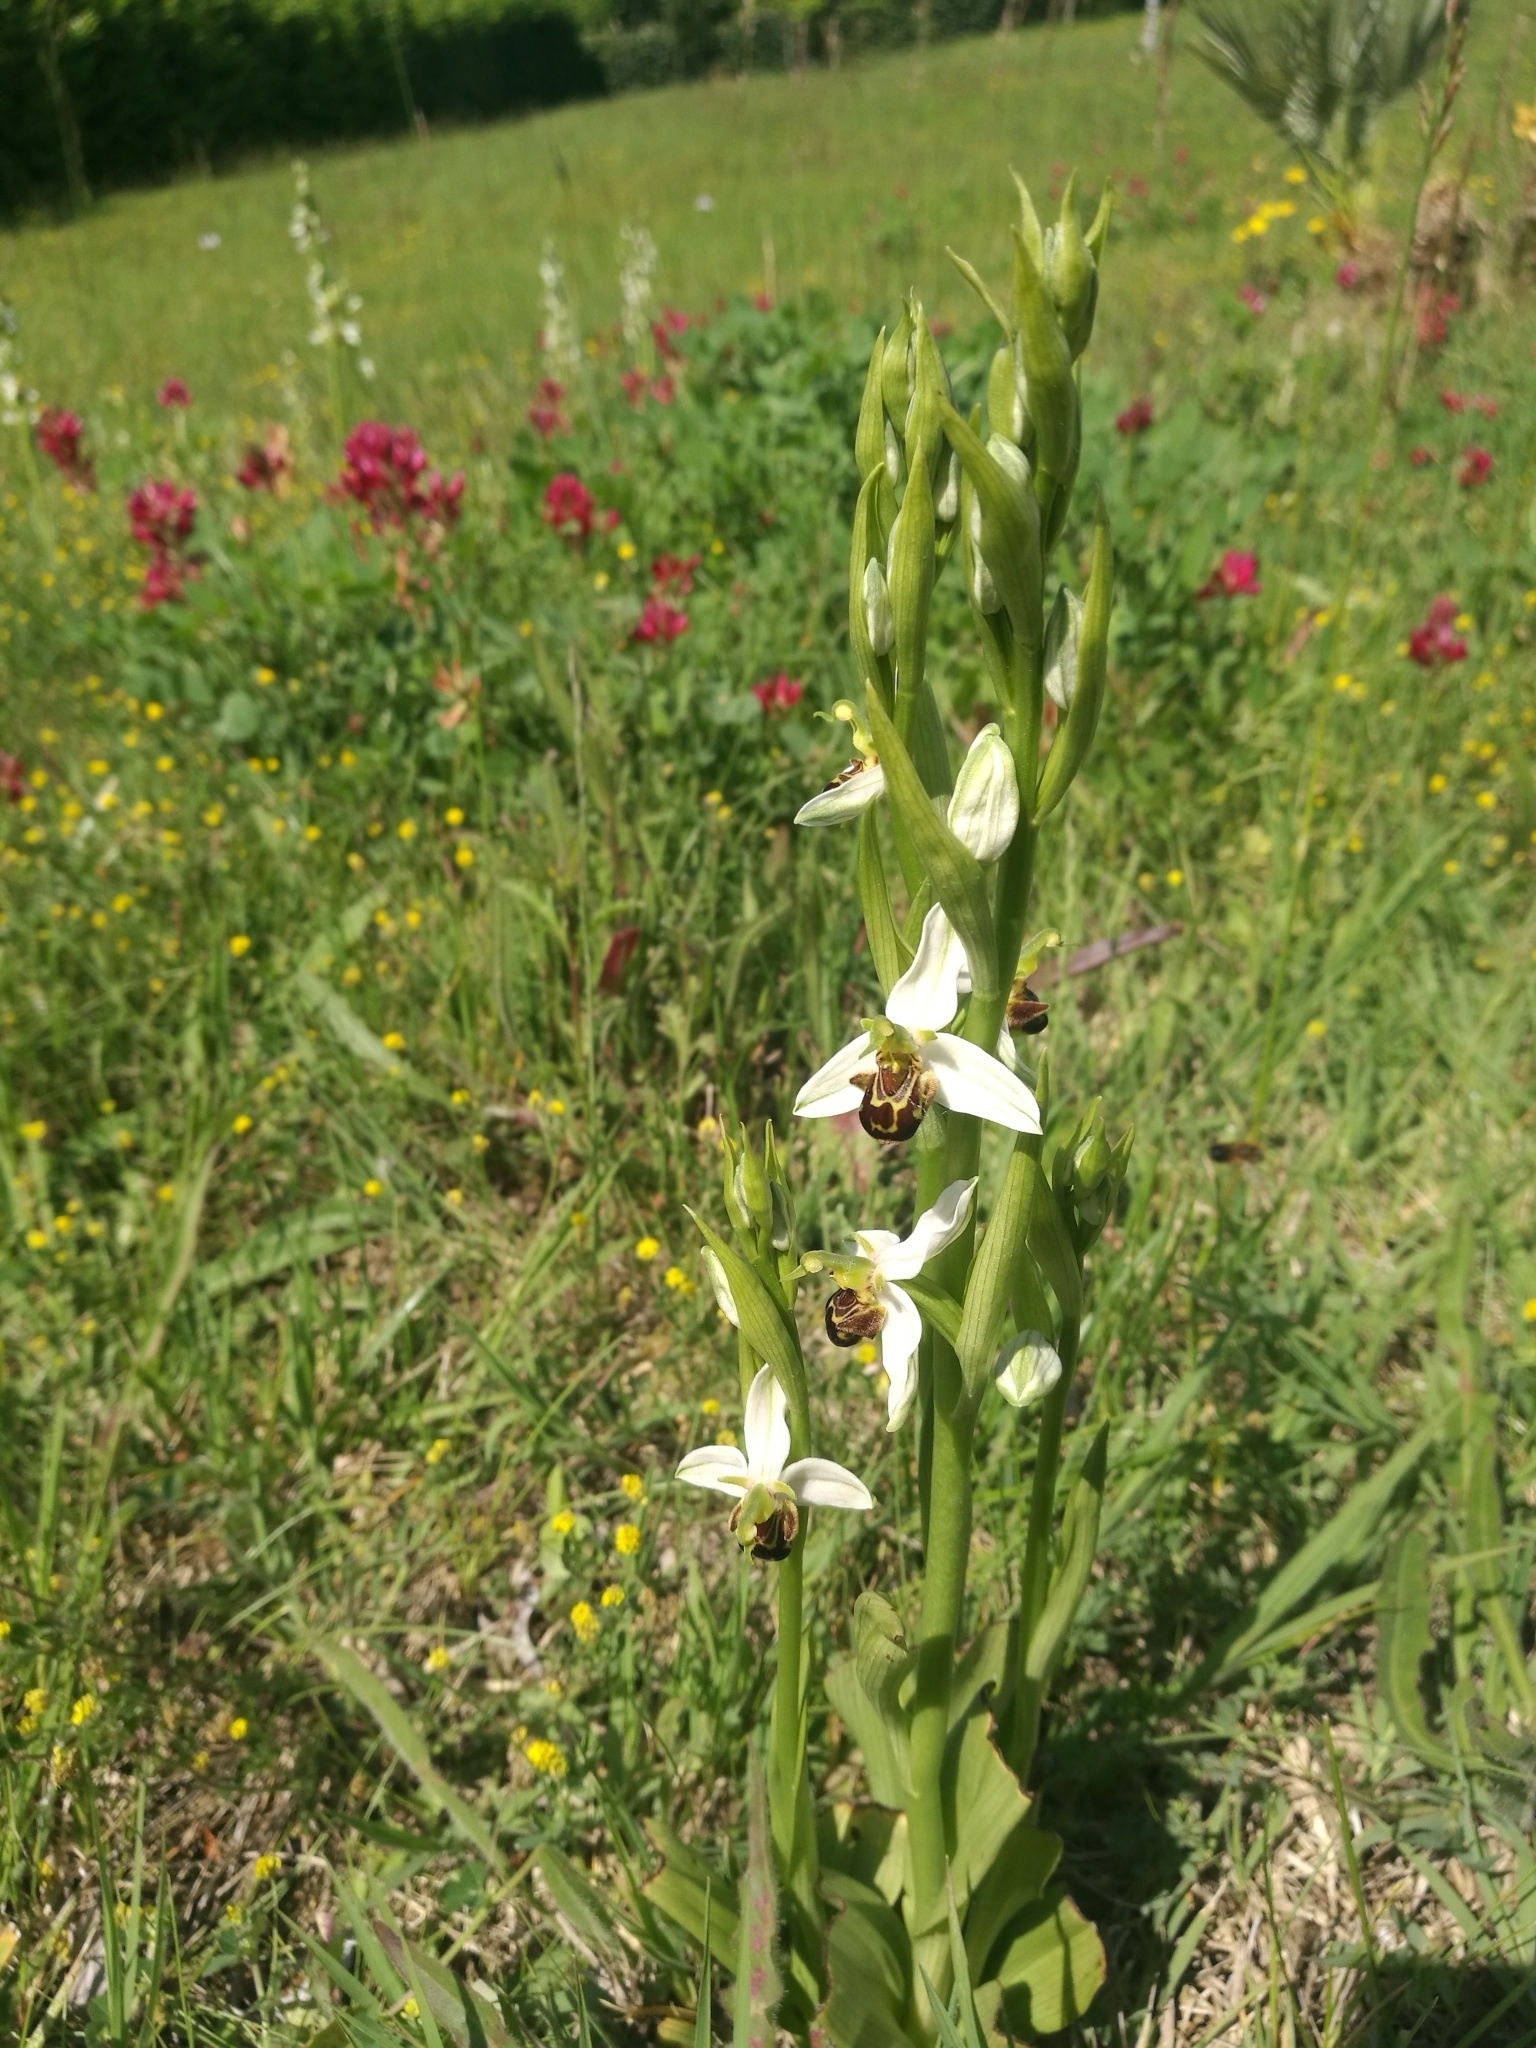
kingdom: Plantae
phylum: Tracheophyta
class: Liliopsida
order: Asparagales
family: Orchidaceae
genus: Ophrys
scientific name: Ophrys apifera
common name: Bee orchid
